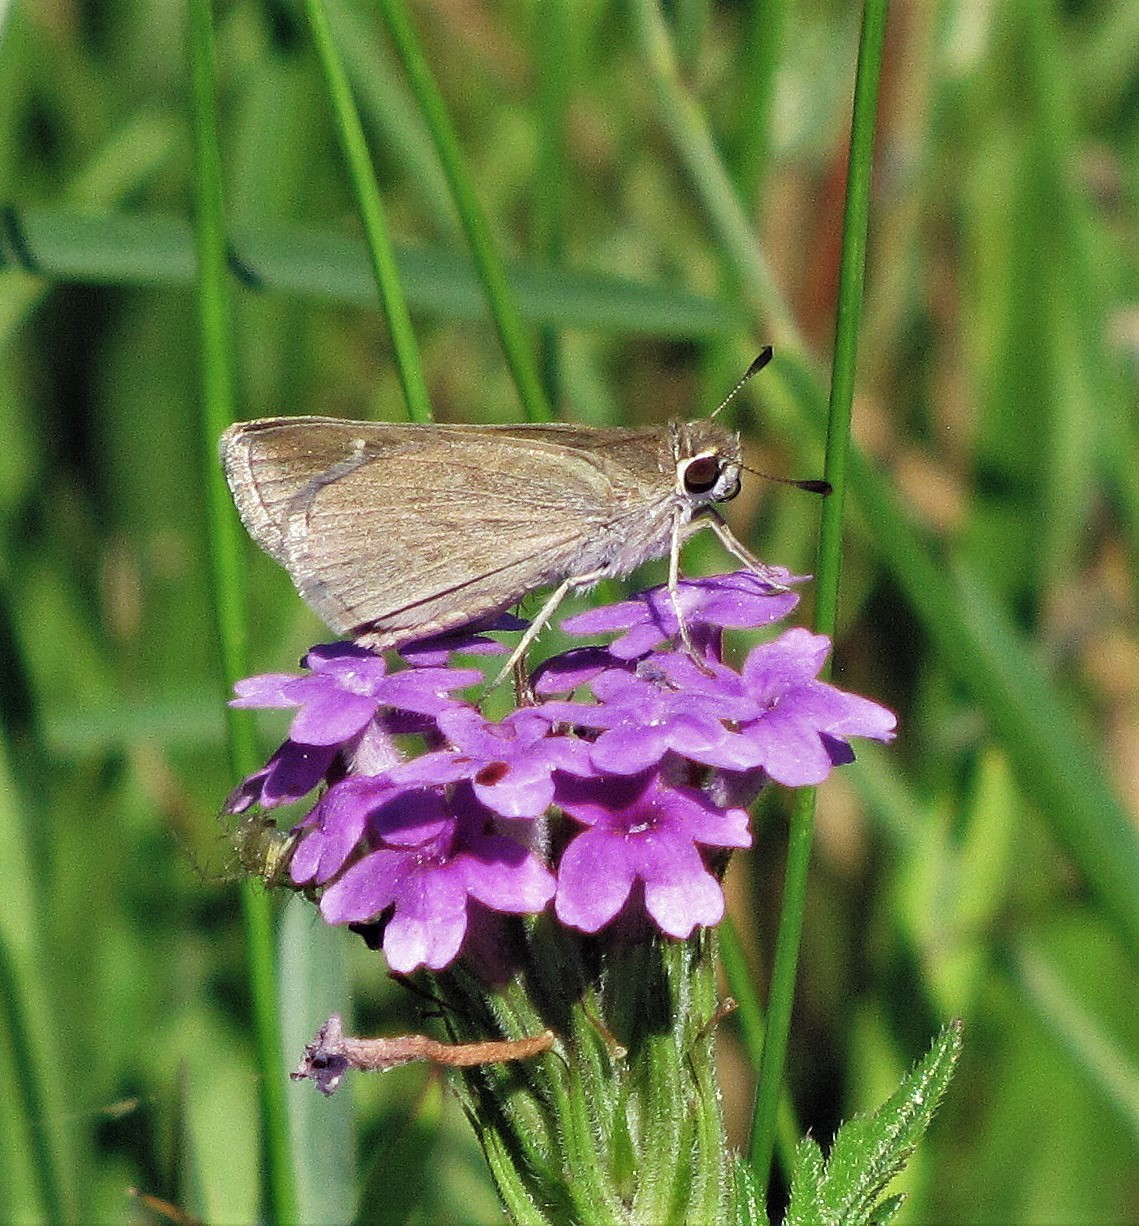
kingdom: Animalia
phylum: Arthropoda
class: Insecta
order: Lepidoptera
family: Hesperiidae
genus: Lerodea
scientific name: Lerodea eufala
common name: Eufala skipper
